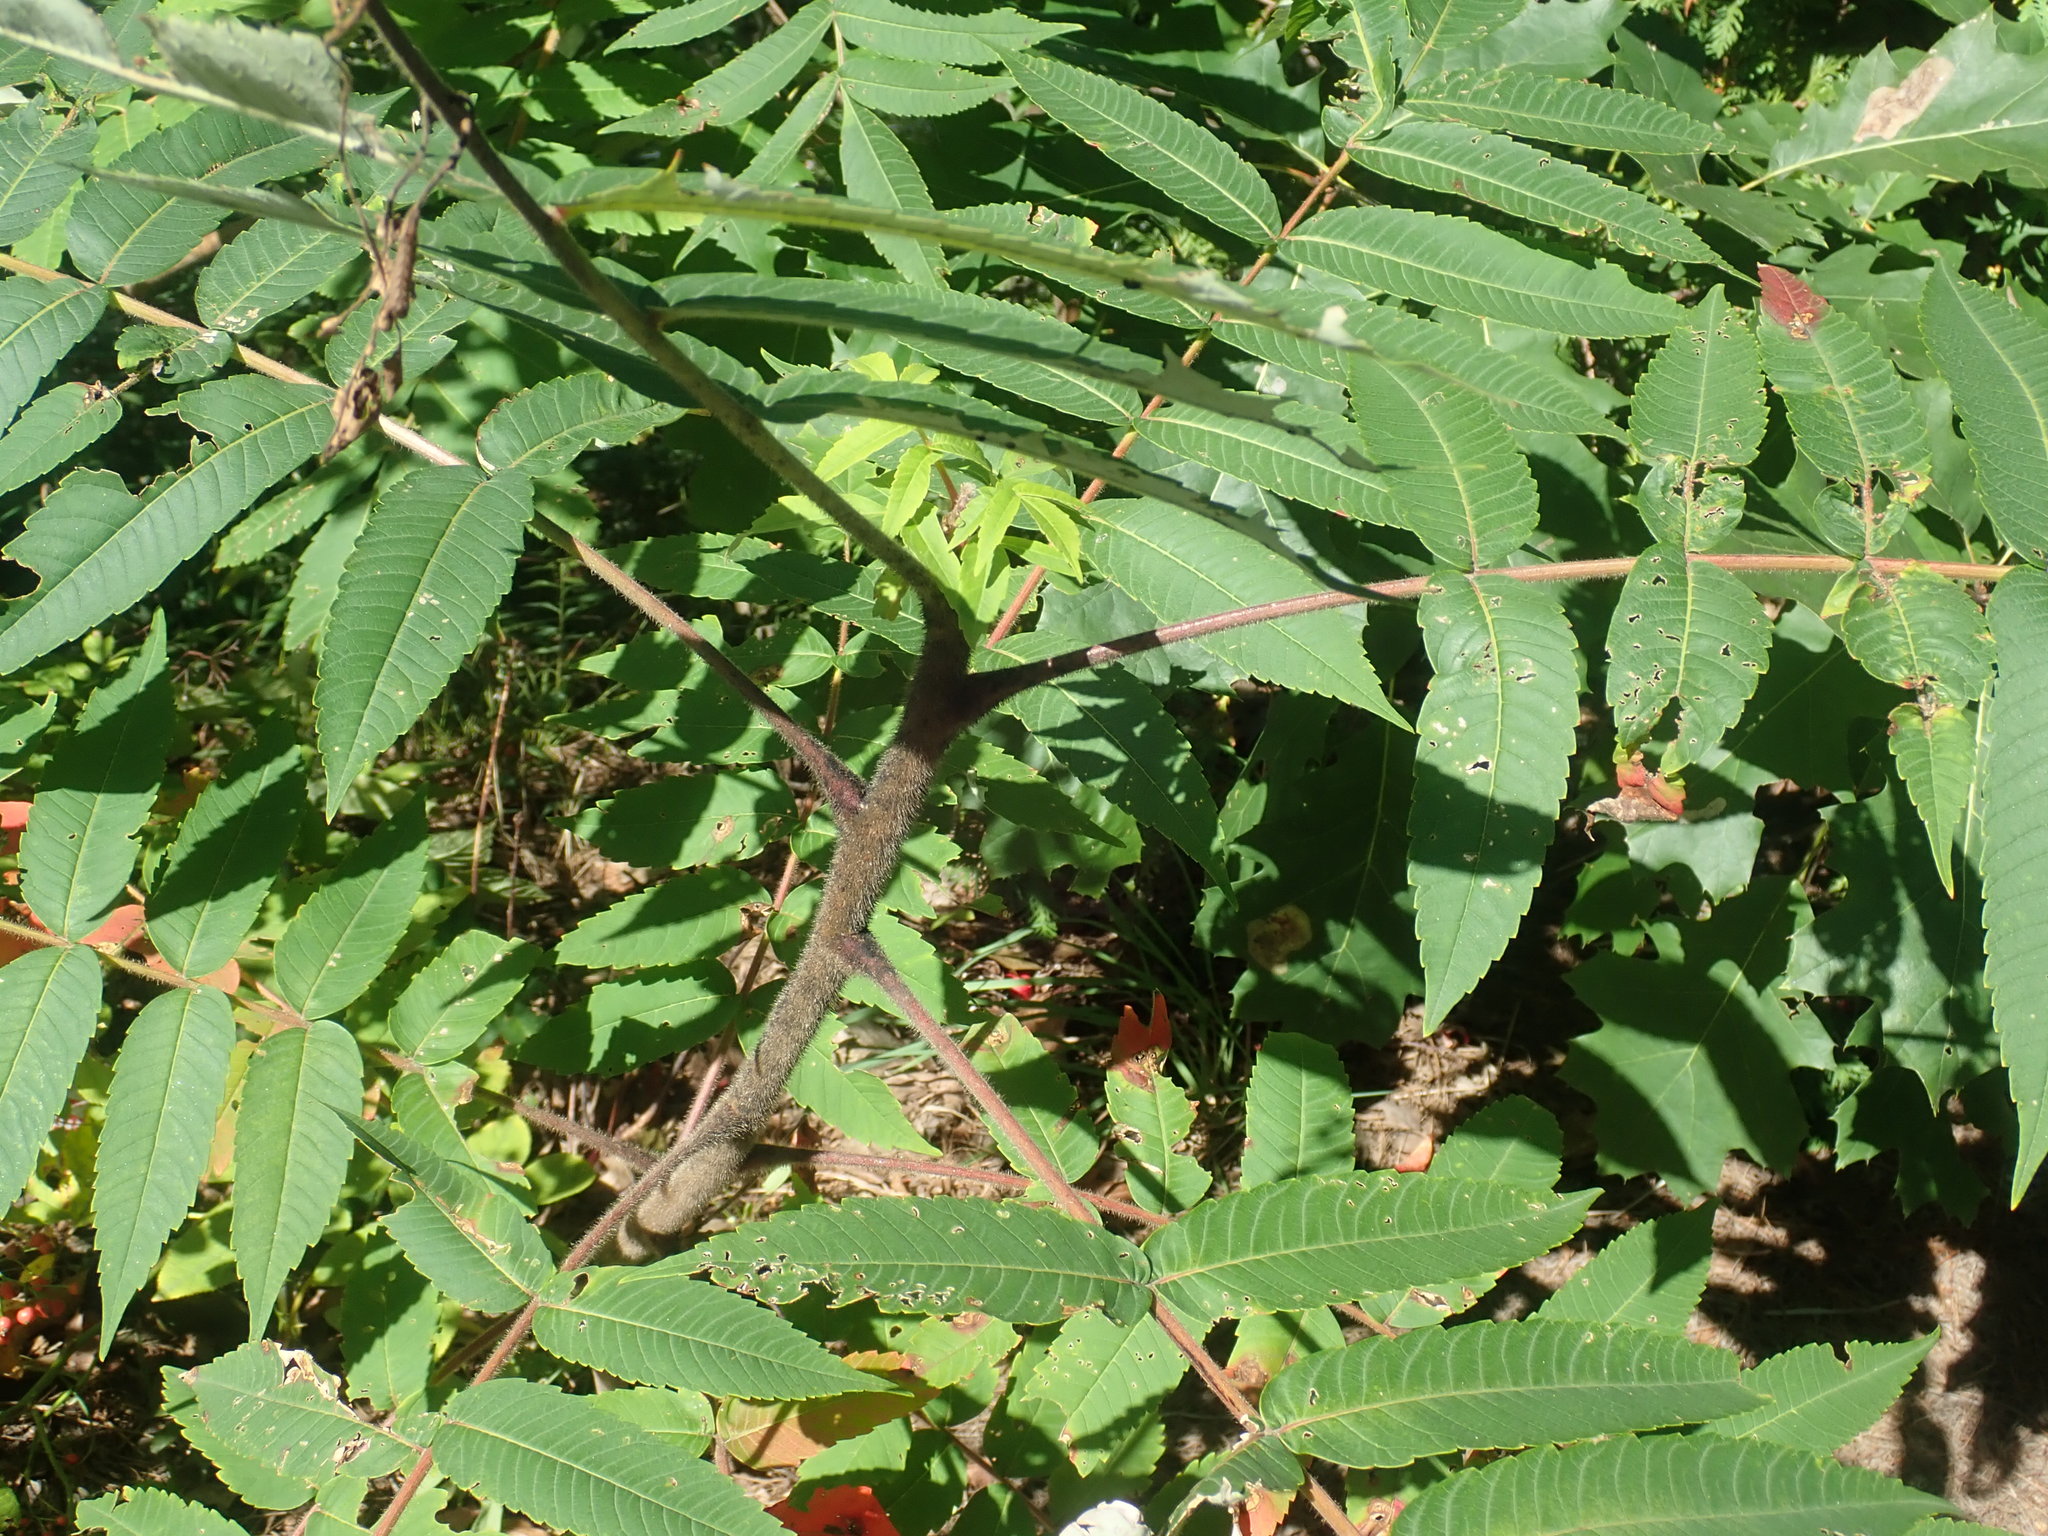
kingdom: Plantae
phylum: Tracheophyta
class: Magnoliopsida
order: Sapindales
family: Anacardiaceae
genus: Rhus
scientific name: Rhus typhina
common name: Staghorn sumac
